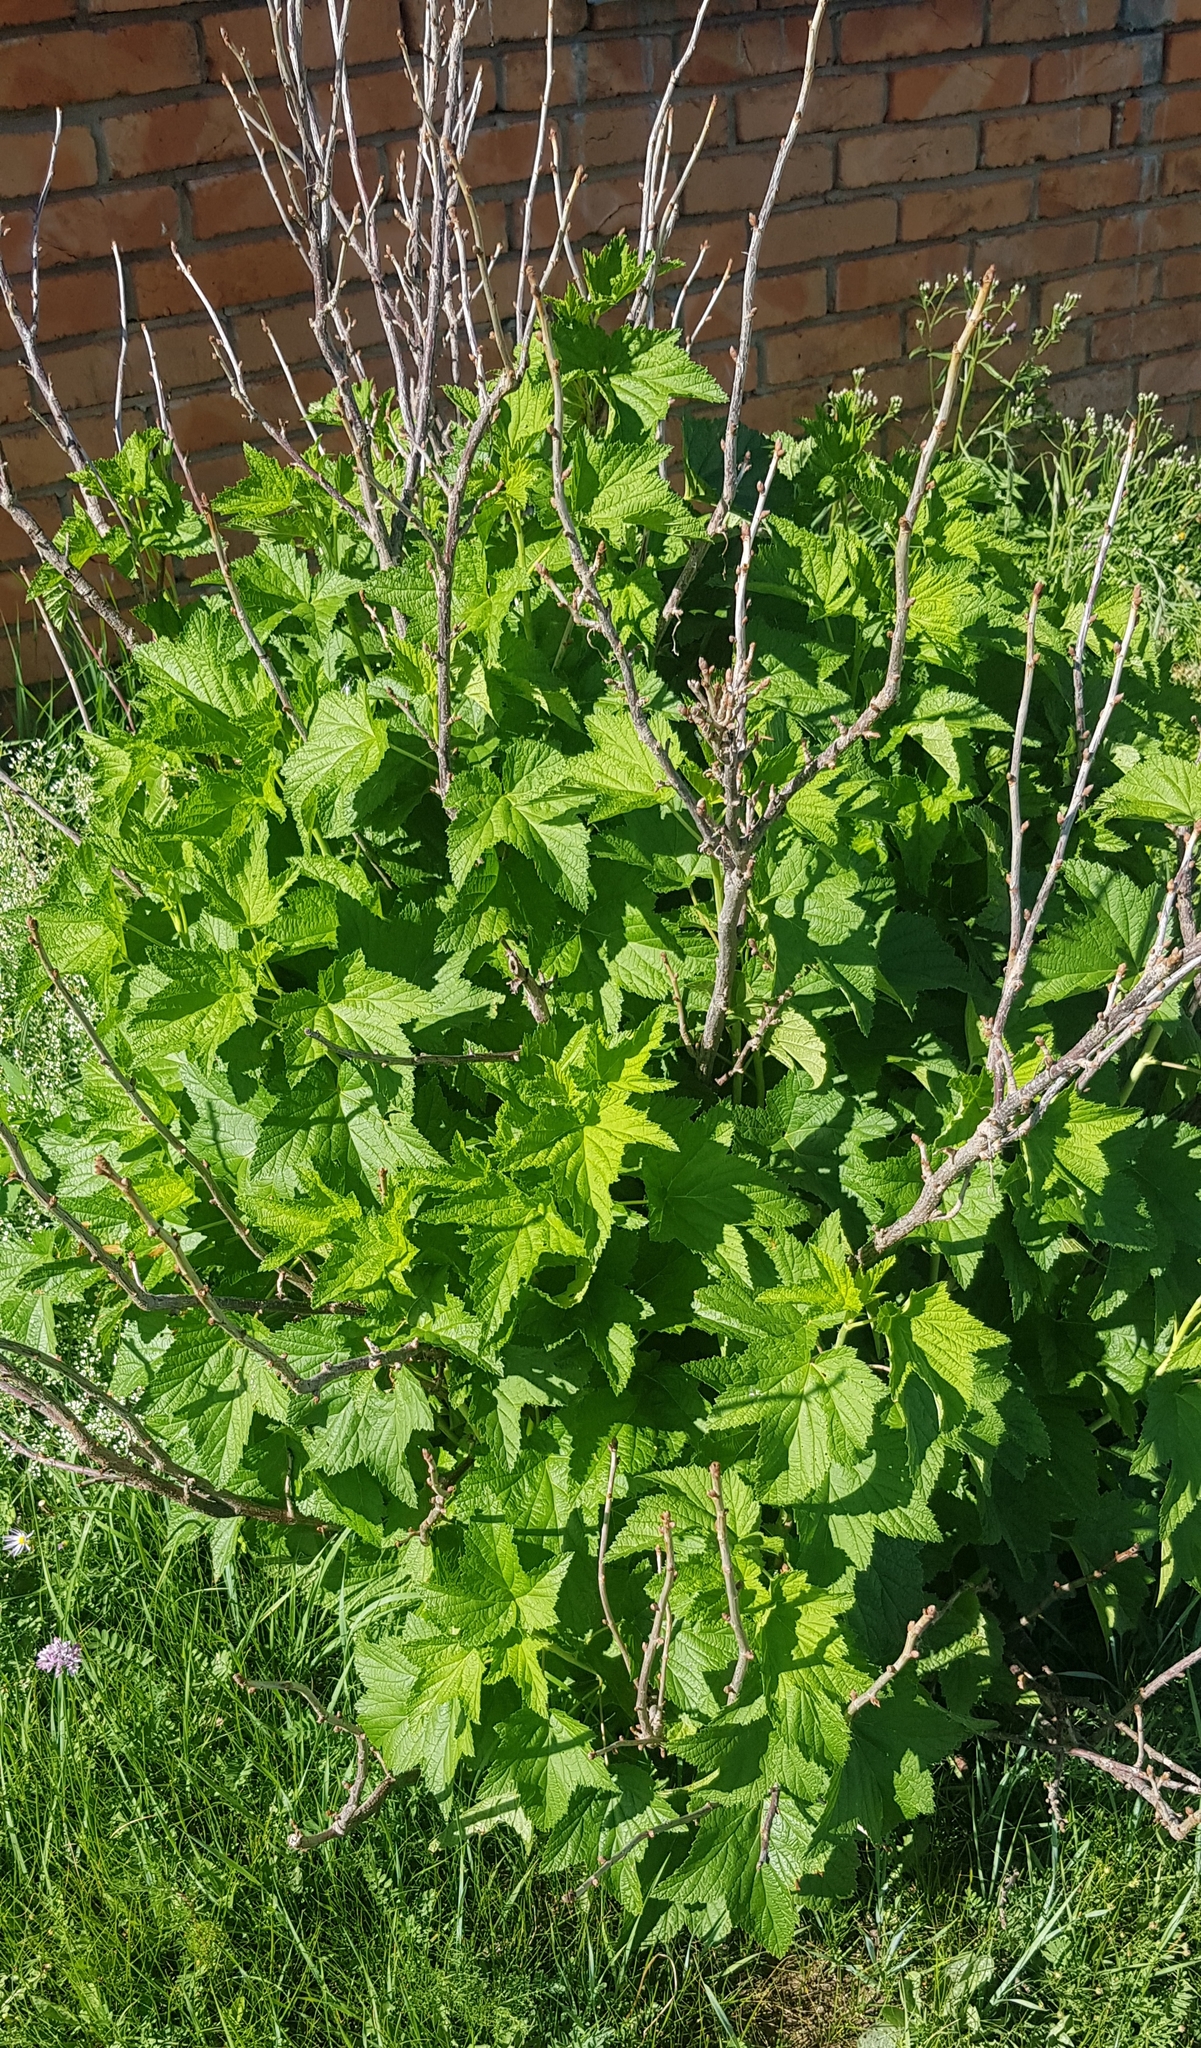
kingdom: Plantae
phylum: Tracheophyta
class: Magnoliopsida
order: Saxifragales
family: Grossulariaceae
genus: Ribes
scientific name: Ribes nigrum
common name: Black currant
